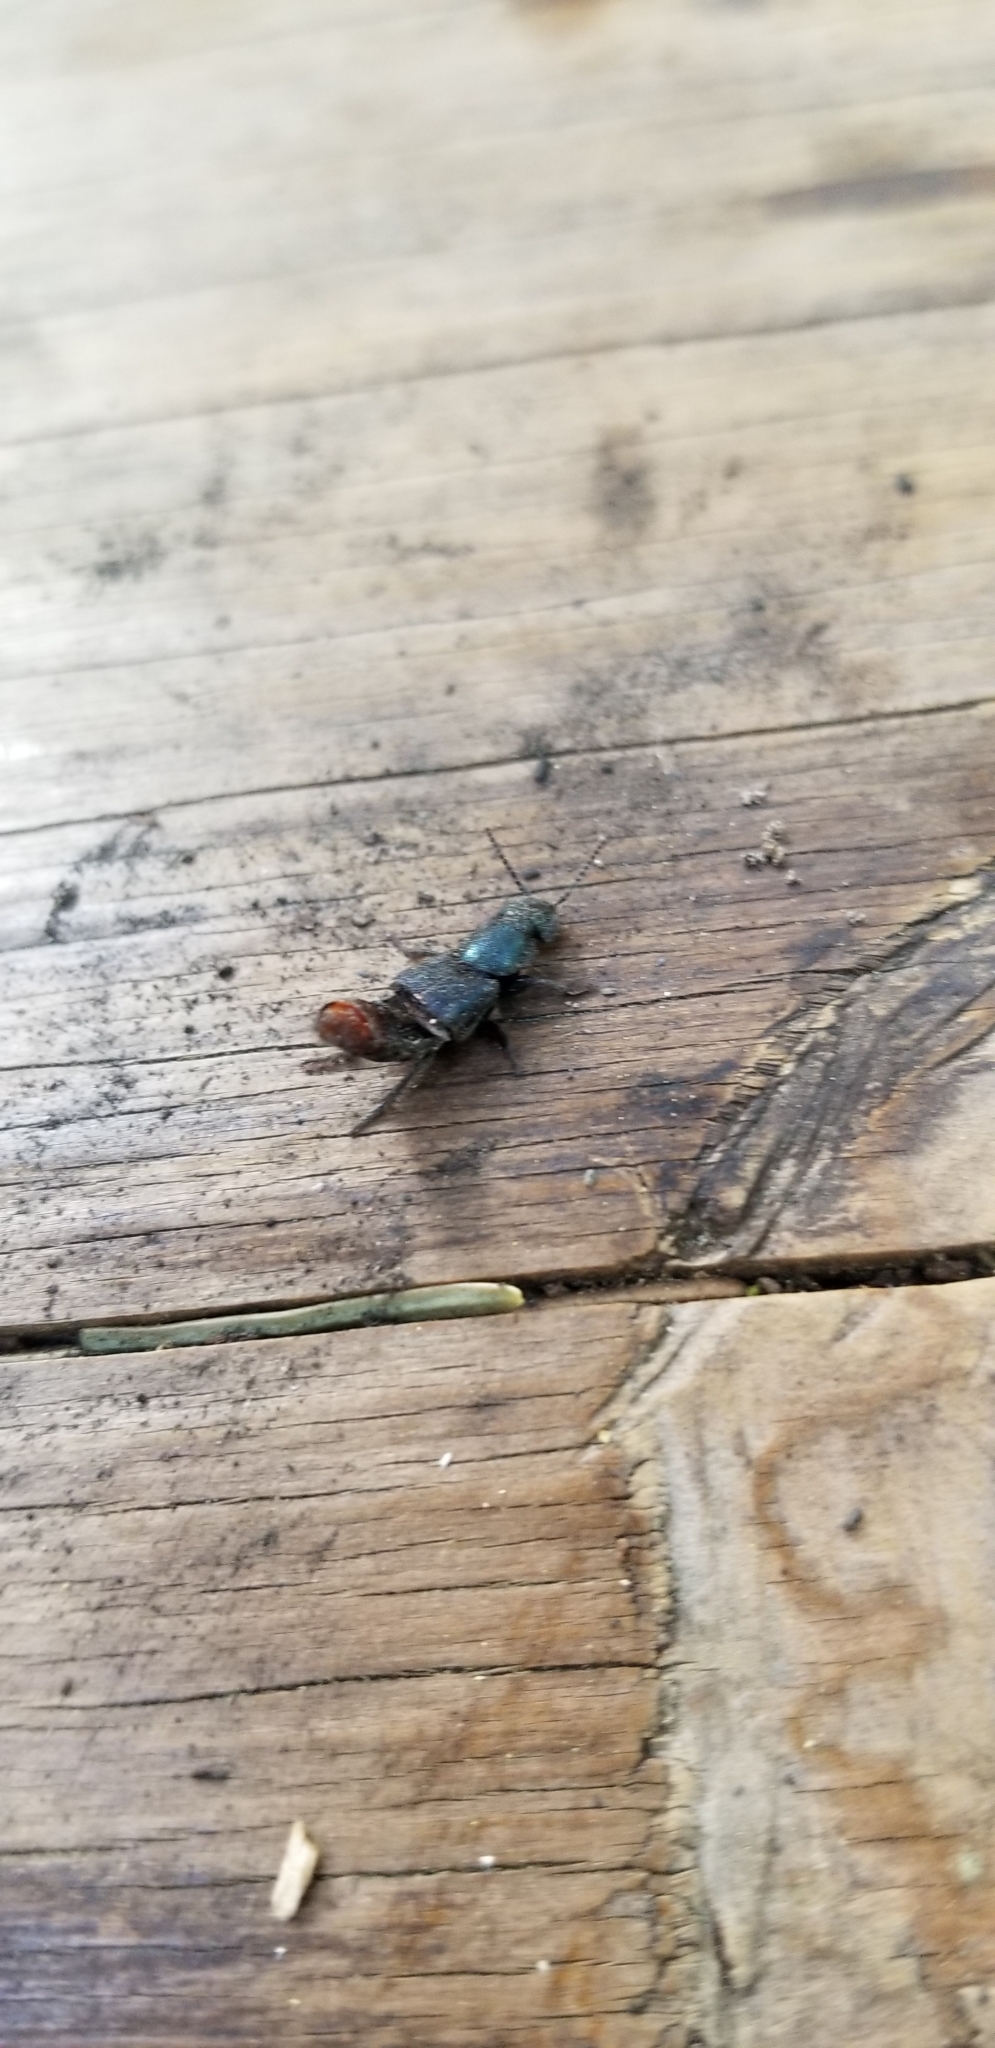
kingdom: Animalia
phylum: Arthropoda
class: Insecta
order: Coleoptera
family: Staphylinidae
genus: Platydracus
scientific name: Platydracus rutilicauda
